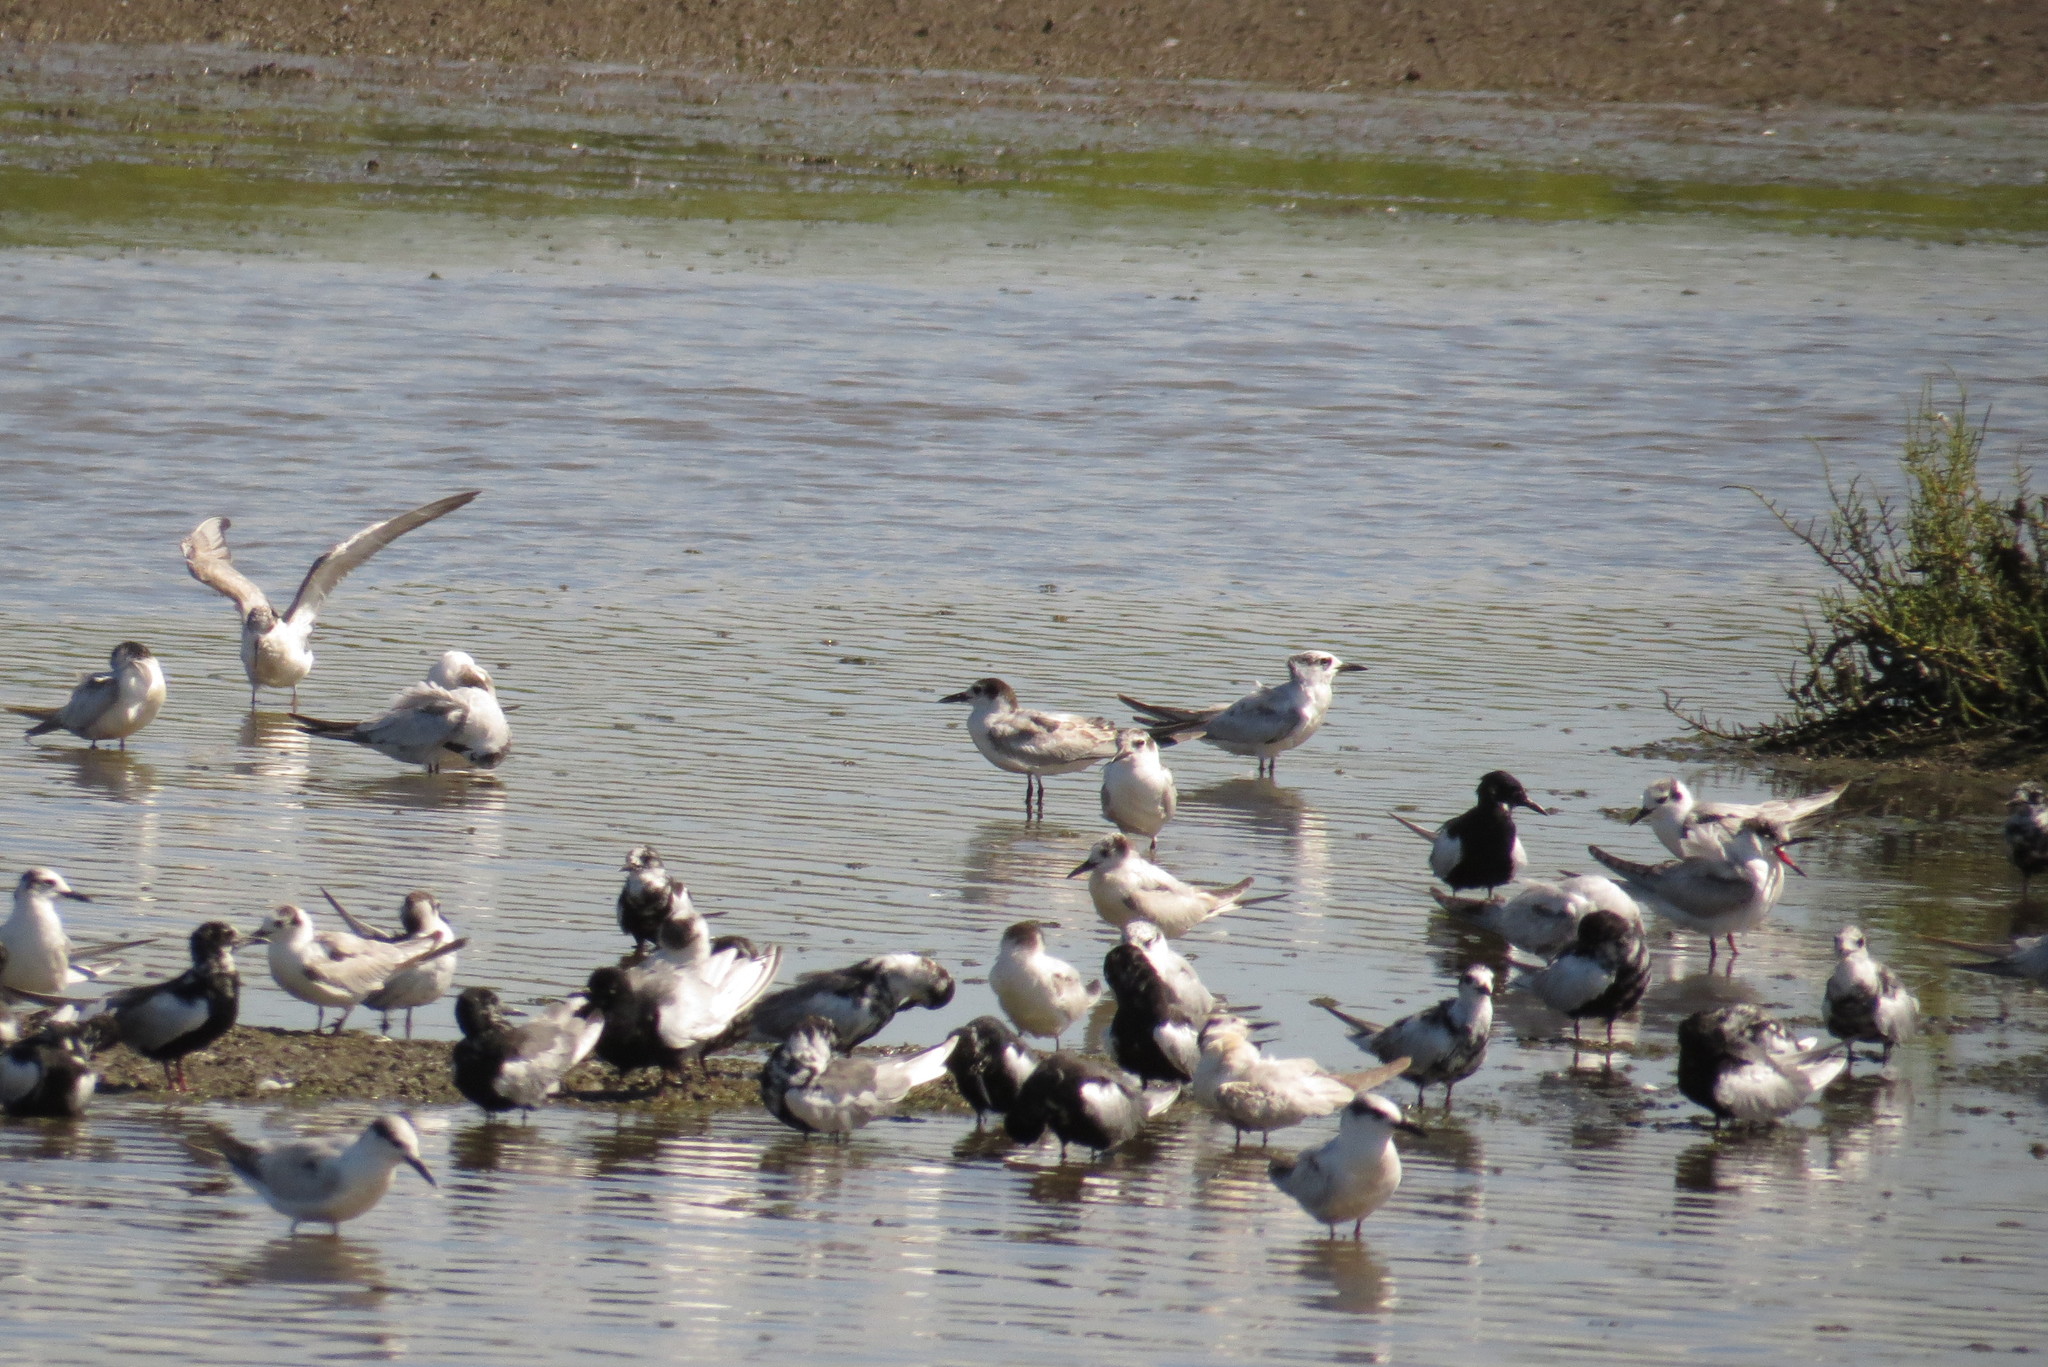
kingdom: Animalia
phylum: Chordata
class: Aves
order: Charadriiformes
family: Laridae
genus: Chlidonias
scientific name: Chlidonias leucopterus
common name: White-winged tern
